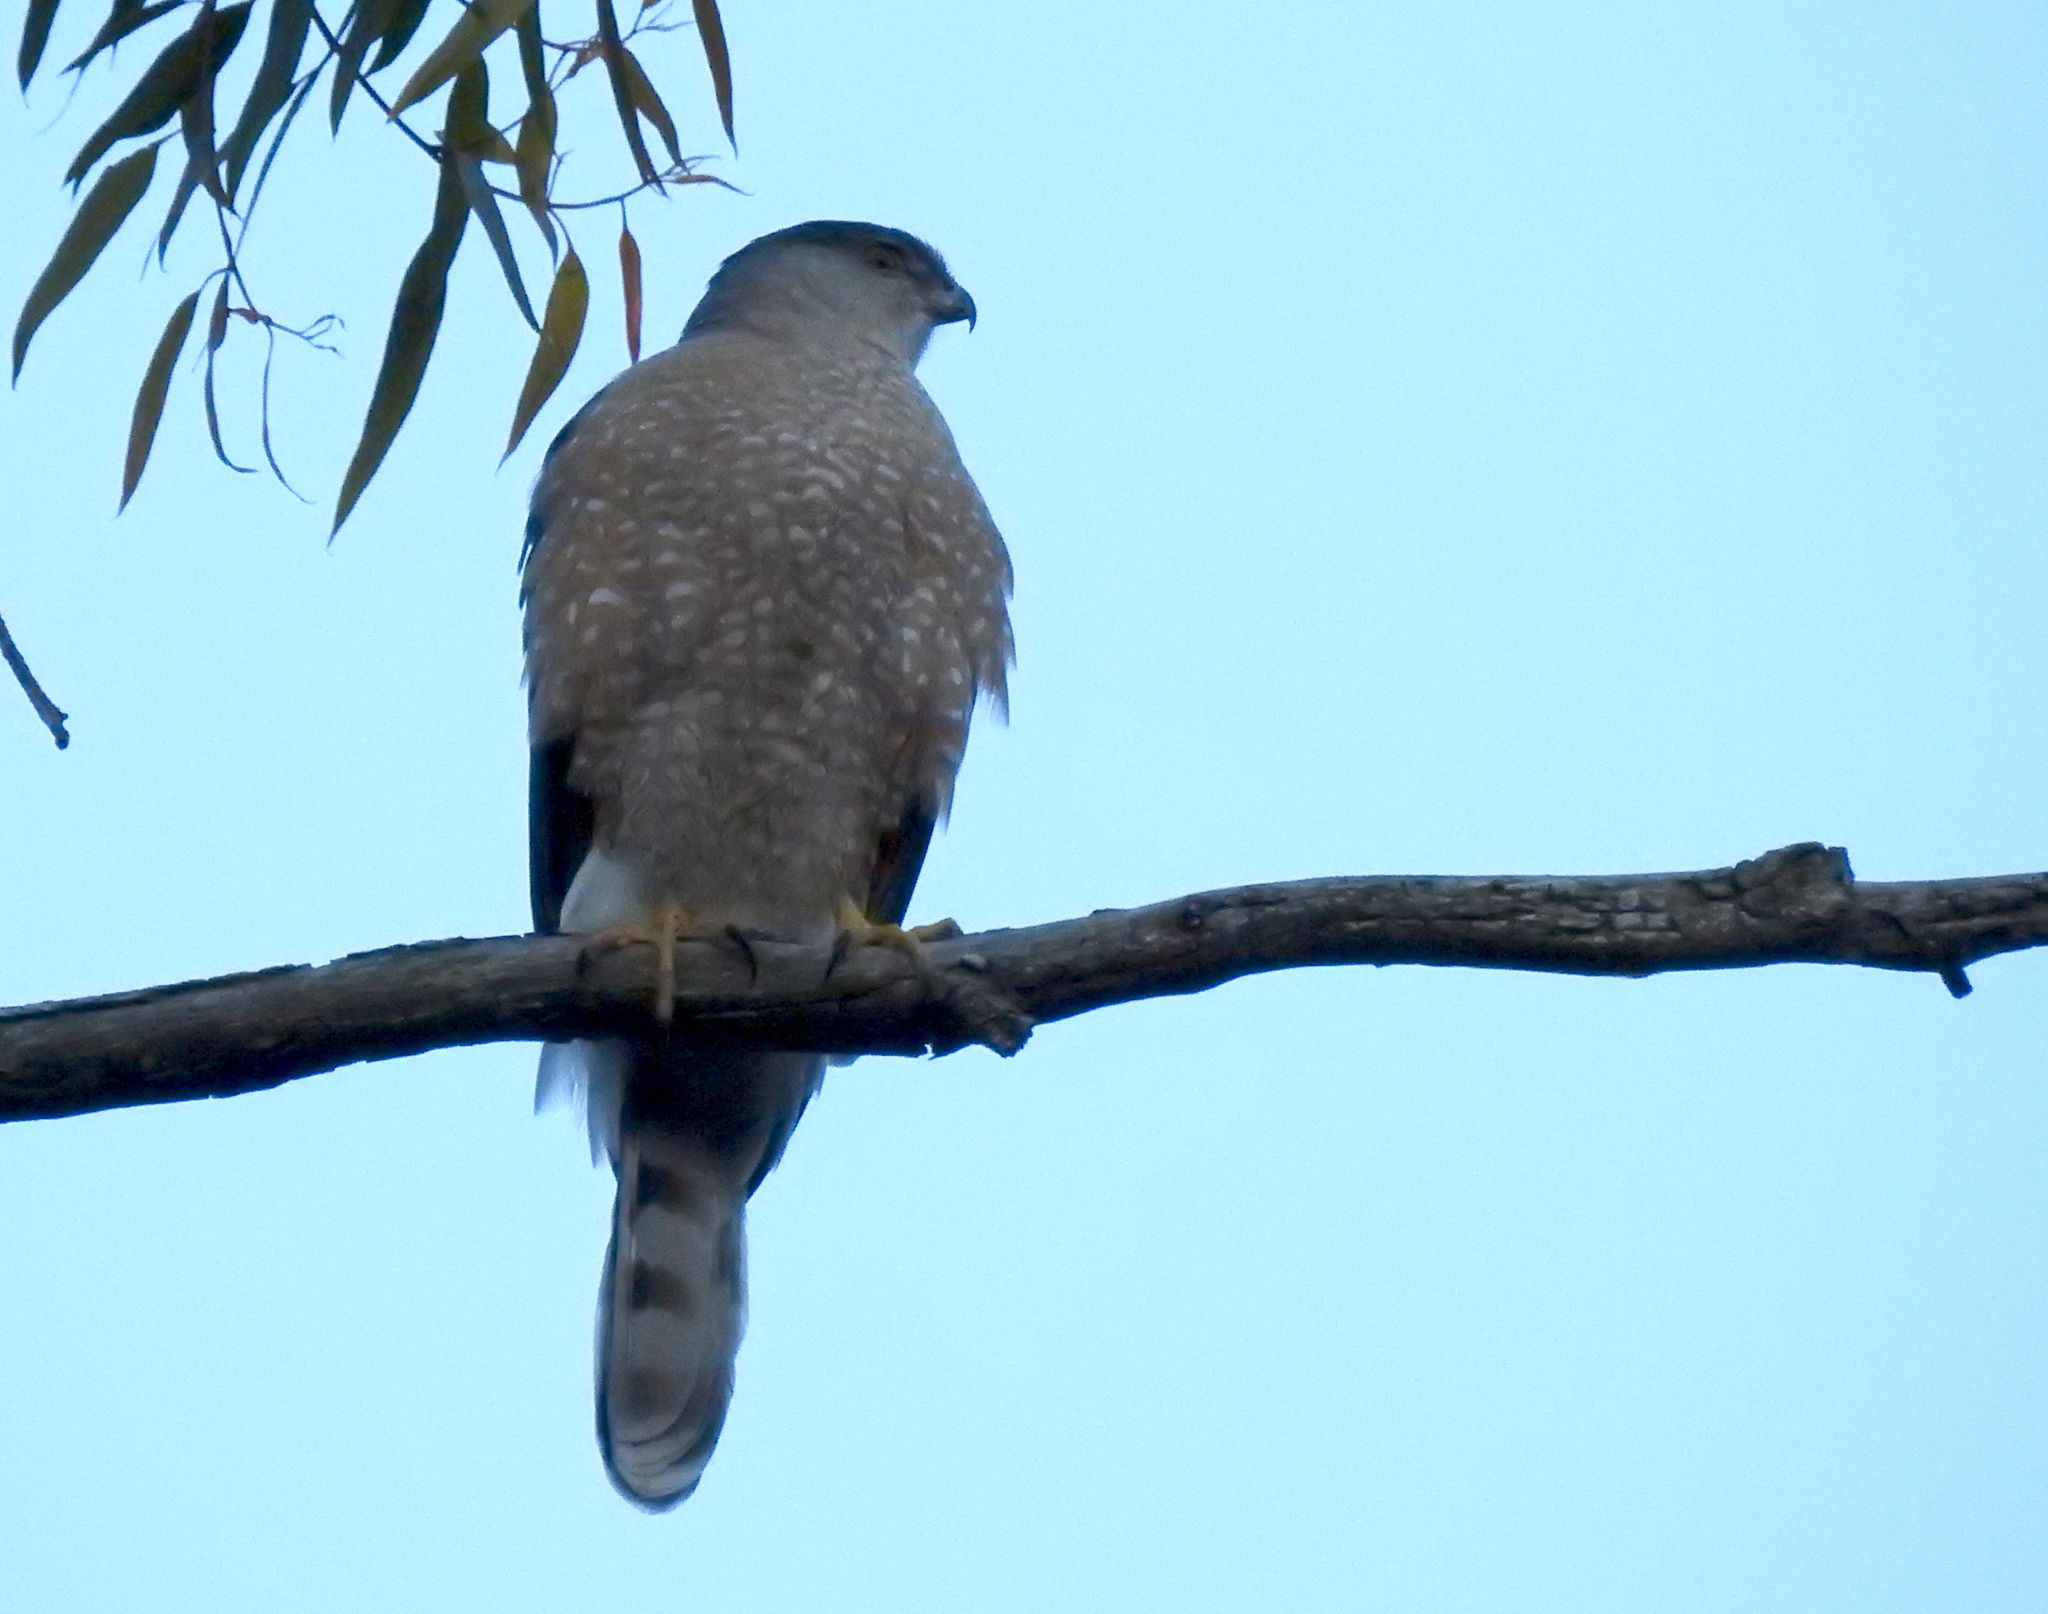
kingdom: Animalia
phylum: Chordata
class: Aves
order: Accipitriformes
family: Accipitridae
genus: Accipiter
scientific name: Accipiter cooperii
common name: Cooper's hawk
